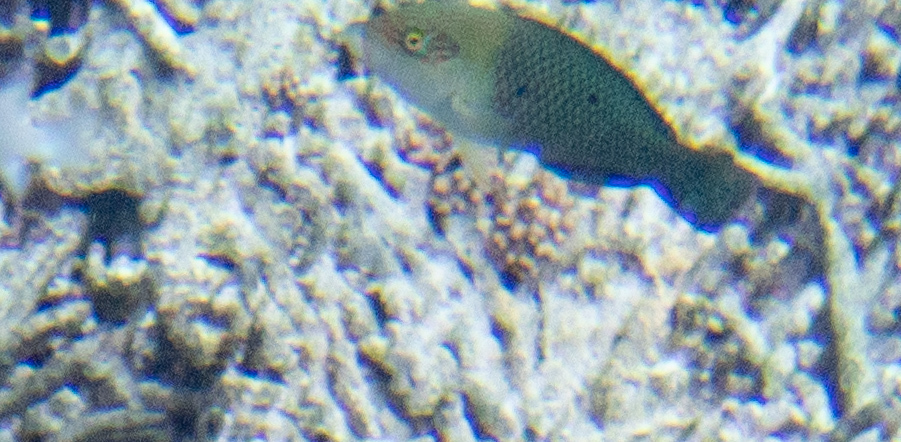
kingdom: Animalia
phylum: Chordata
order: Perciformes
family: Labridae
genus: Hemigymnus
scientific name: Hemigymnus melapterus
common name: Blackeye thicklip
